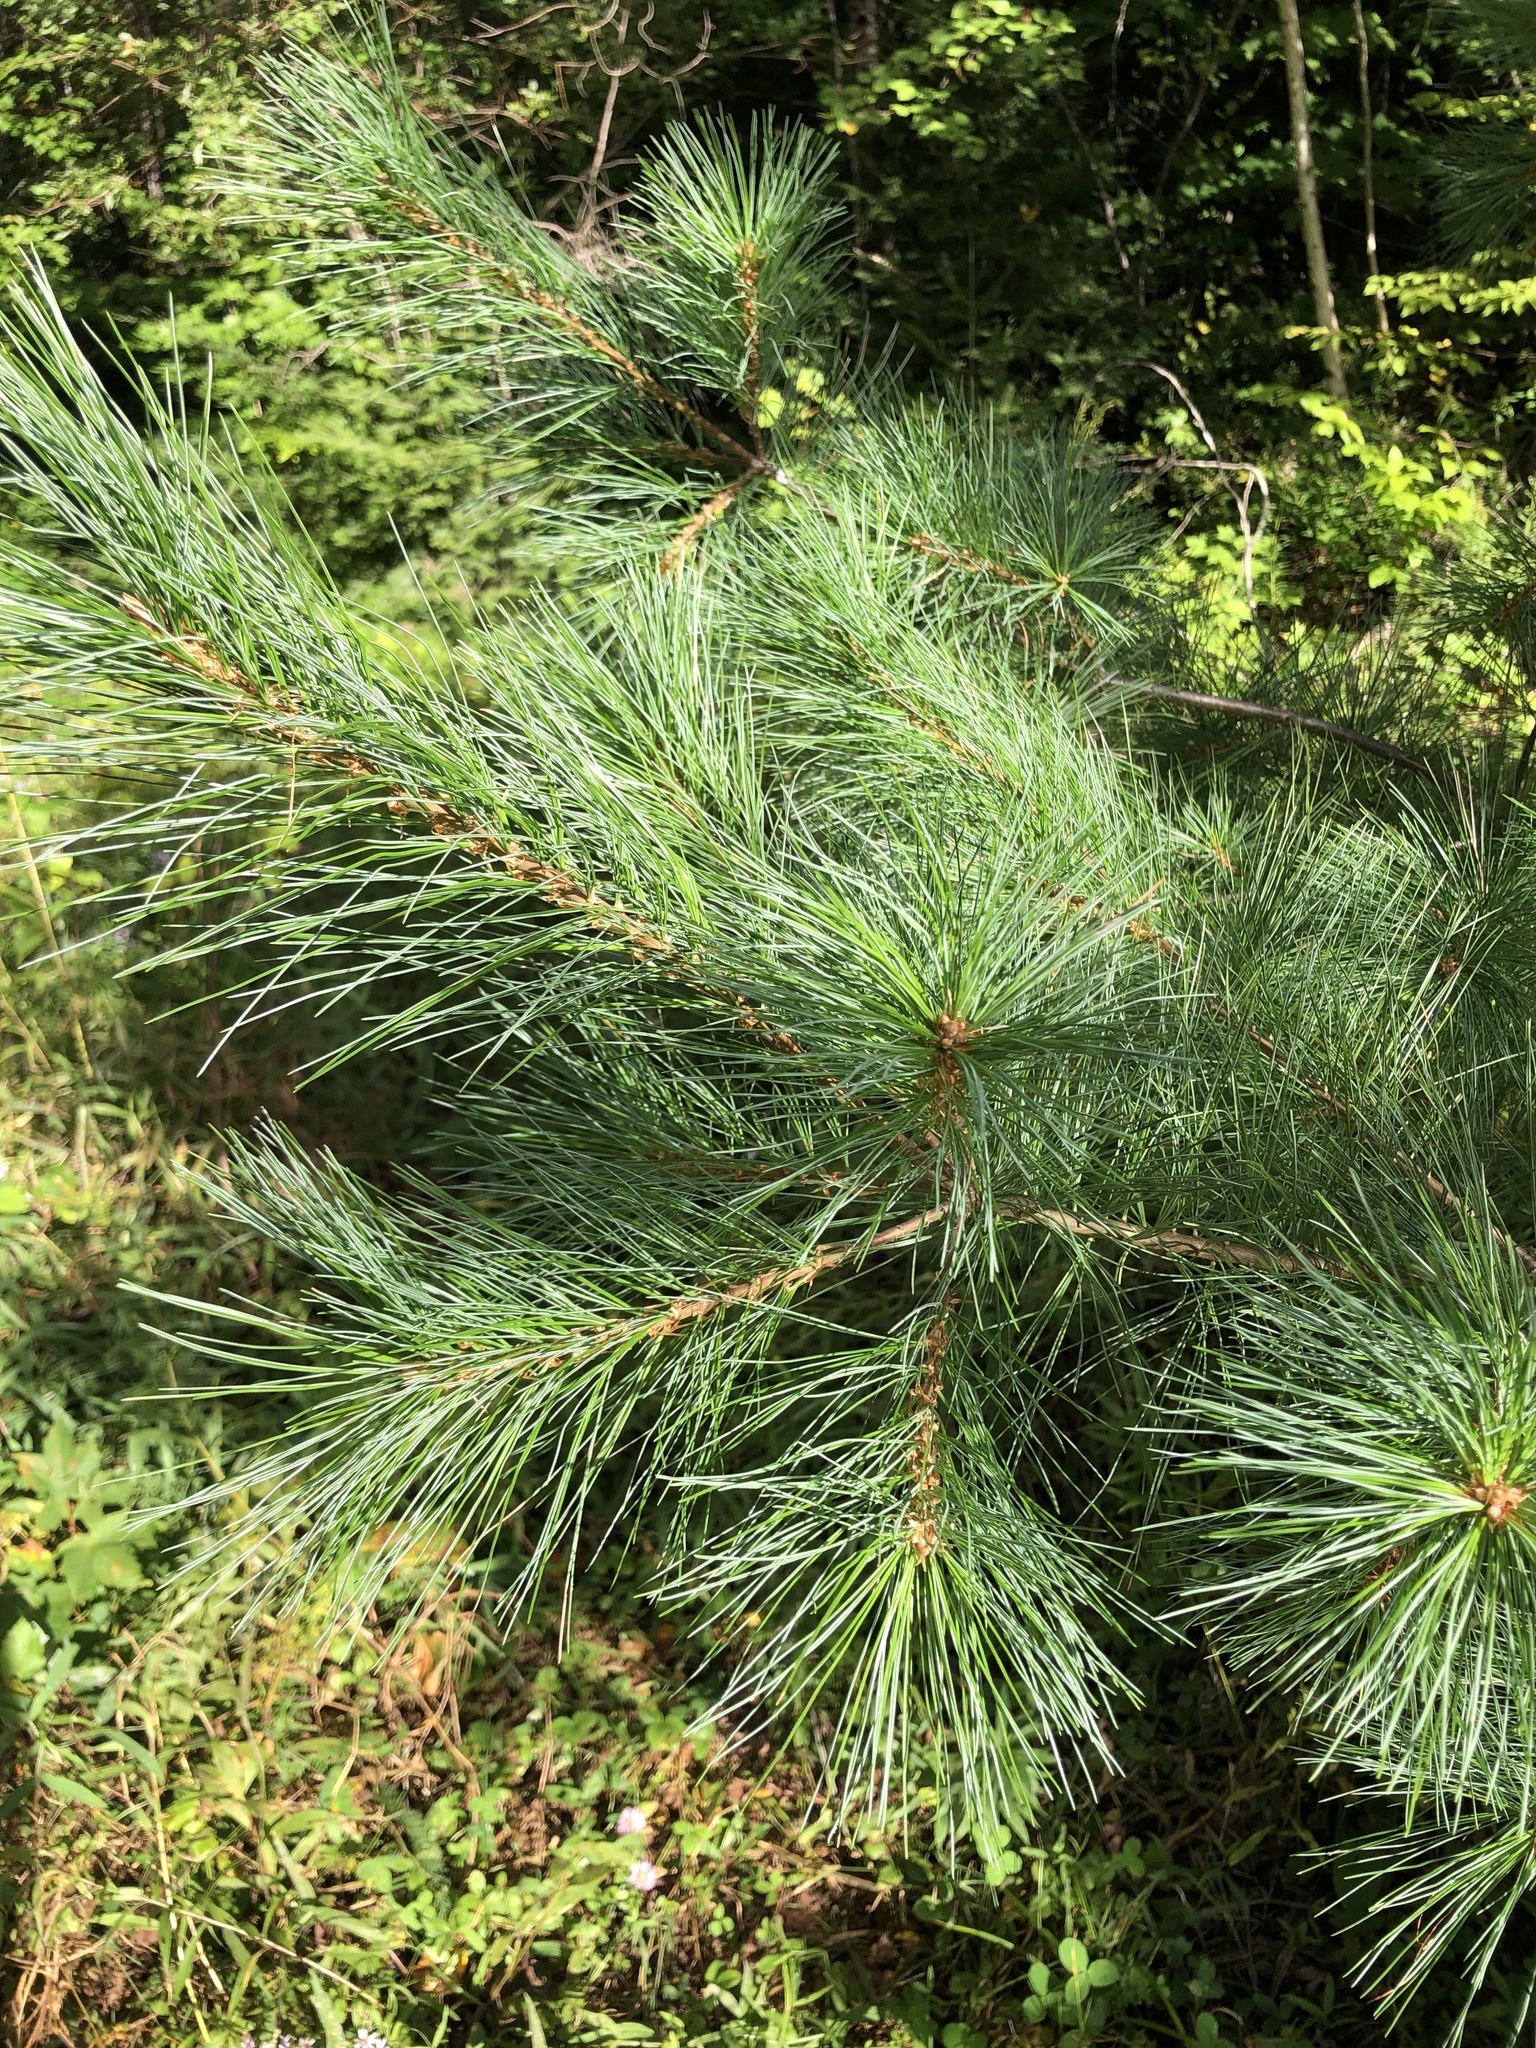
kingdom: Plantae
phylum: Tracheophyta
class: Pinopsida
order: Pinales
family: Pinaceae
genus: Pinus
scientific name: Pinus strobus
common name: Weymouth pine
